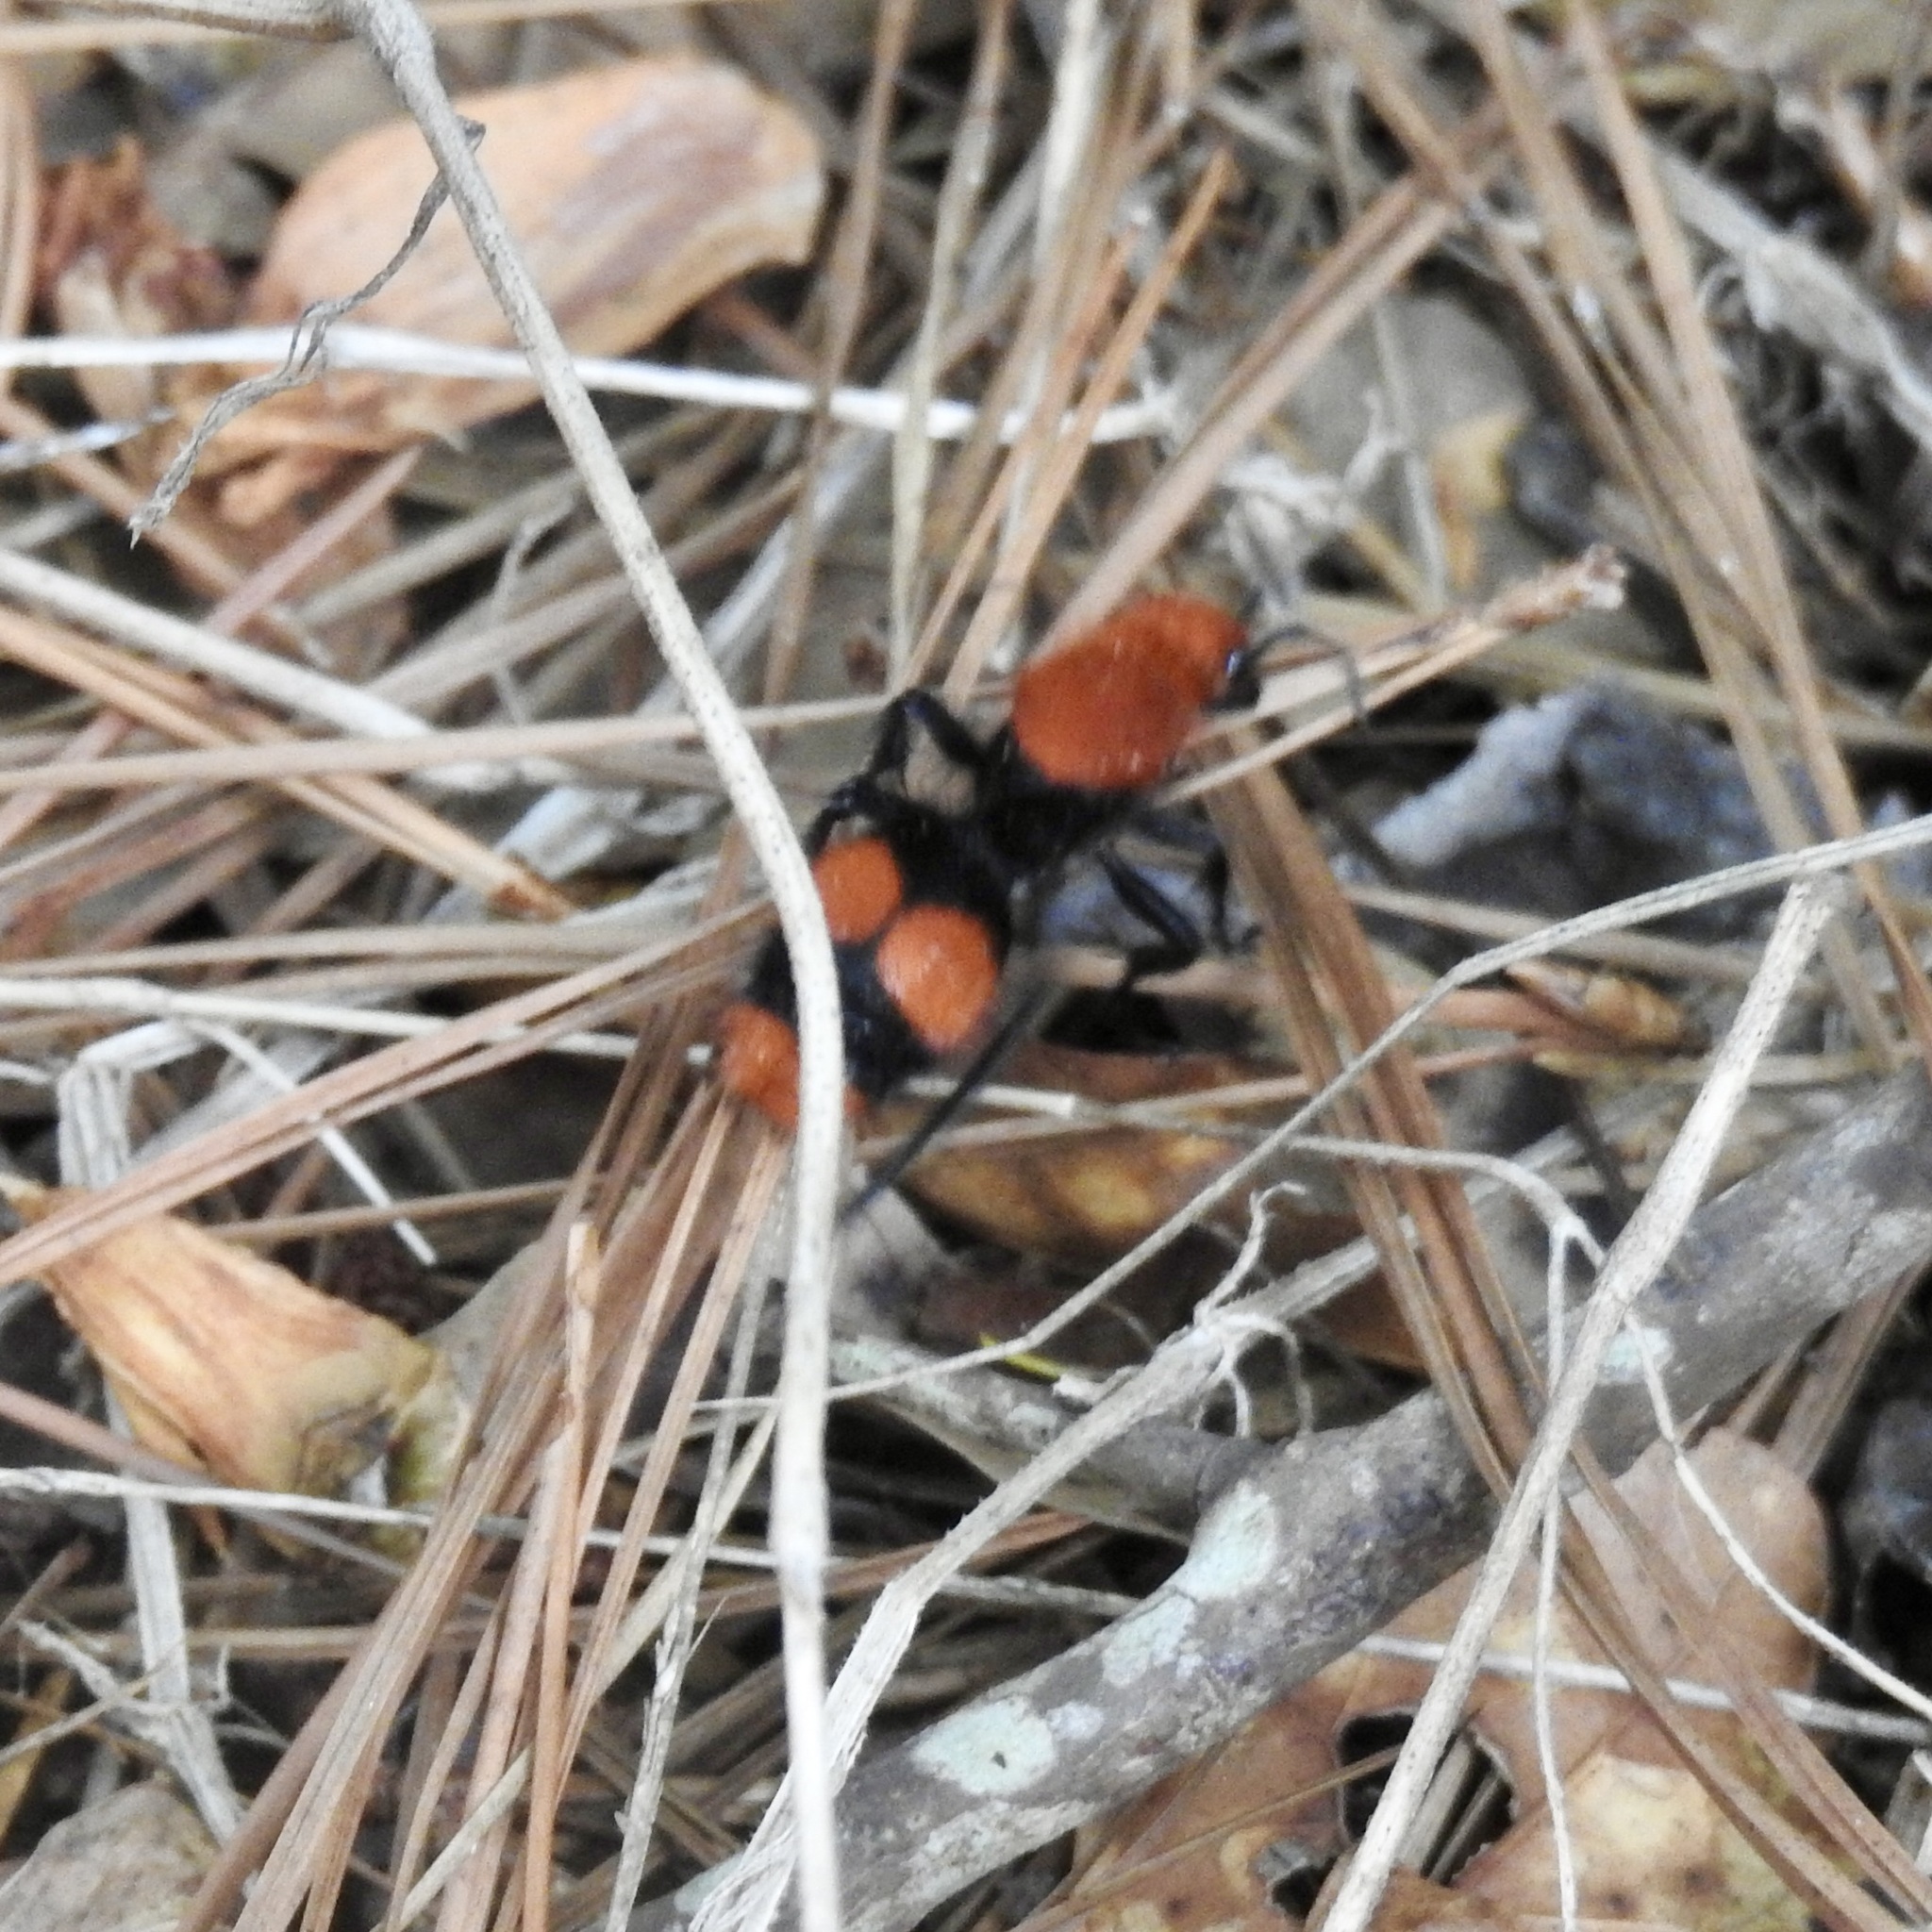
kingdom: Animalia
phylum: Arthropoda
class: Insecta
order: Hymenoptera
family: Mutillidae
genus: Dasymutilla
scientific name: Dasymutilla occidentalis
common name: Common eastern velvet ant
